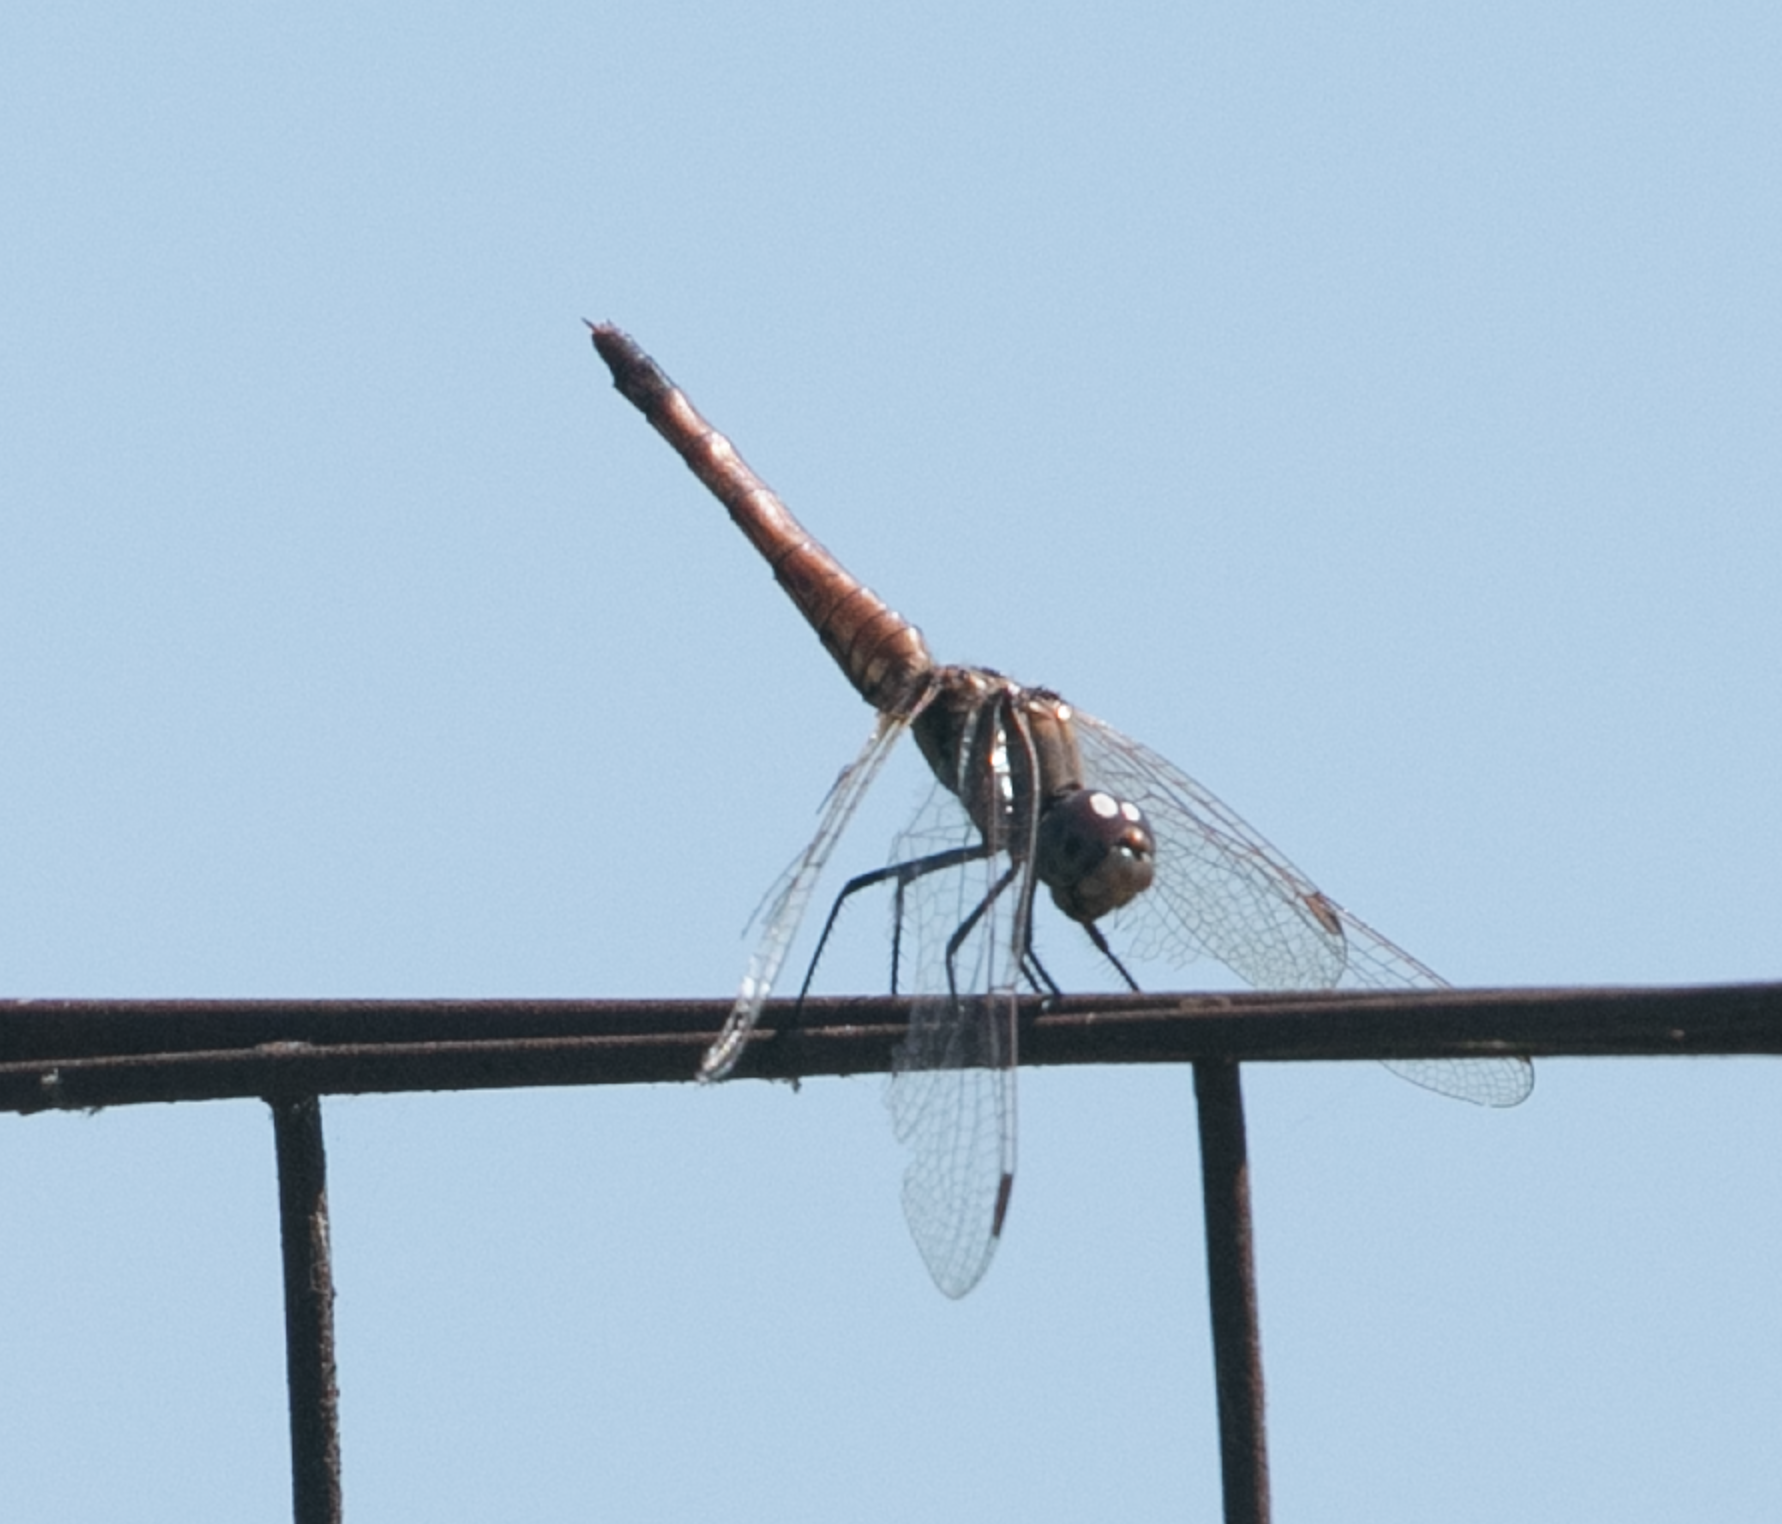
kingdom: Animalia
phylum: Arthropoda
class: Insecta
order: Odonata
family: Libellulidae
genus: Trithemis
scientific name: Trithemis annulata
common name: Violet dropwing
